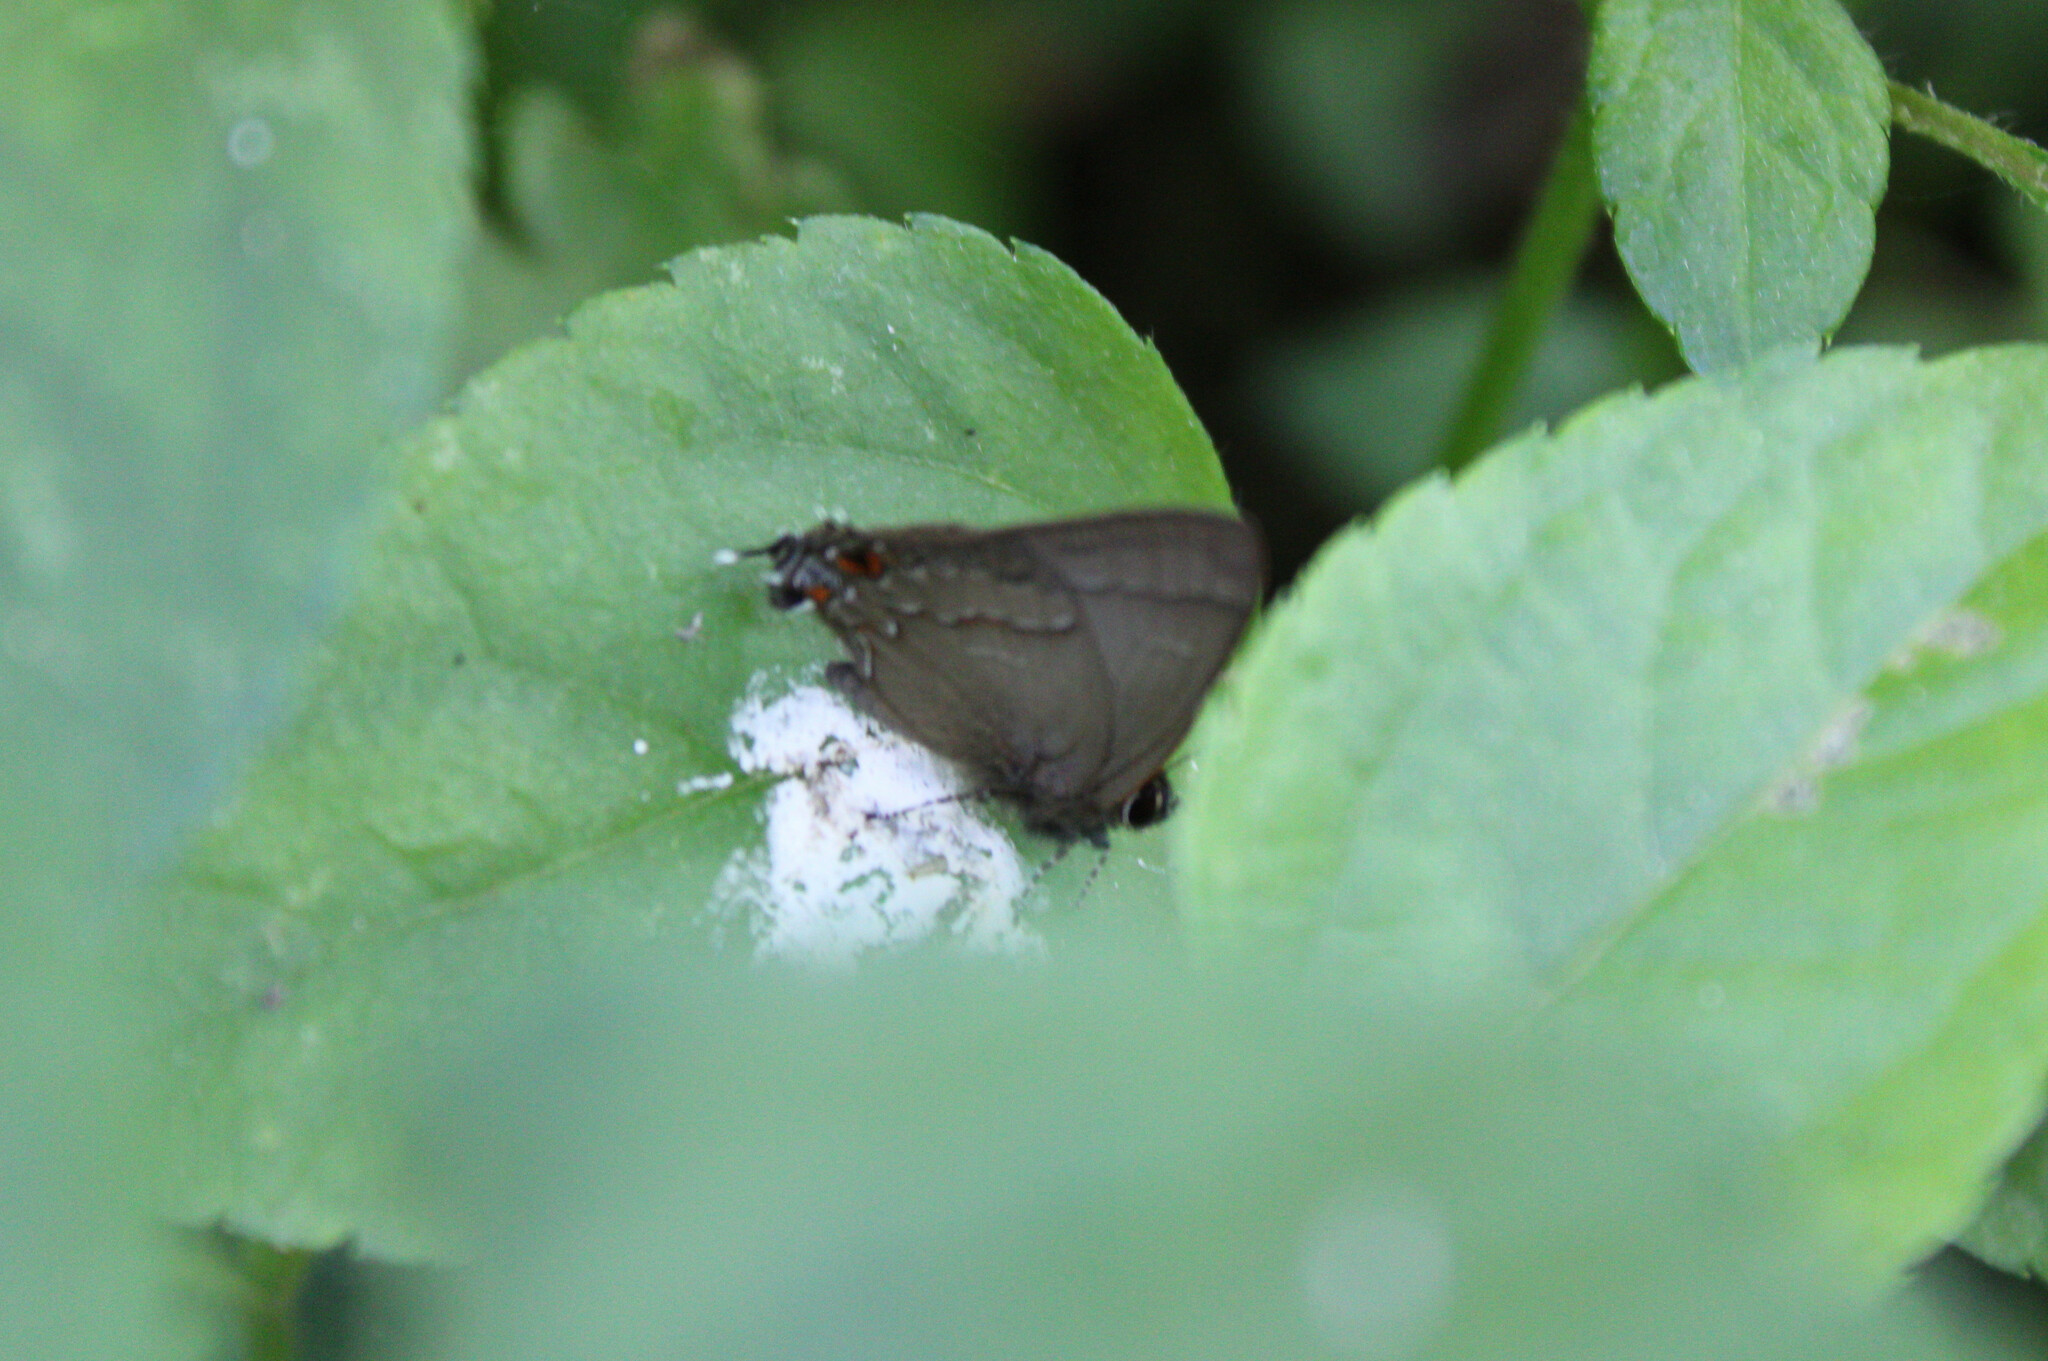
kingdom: Animalia
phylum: Arthropoda
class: Insecta
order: Lepidoptera
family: Lycaenidae
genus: Arzecla
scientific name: Arzecla
